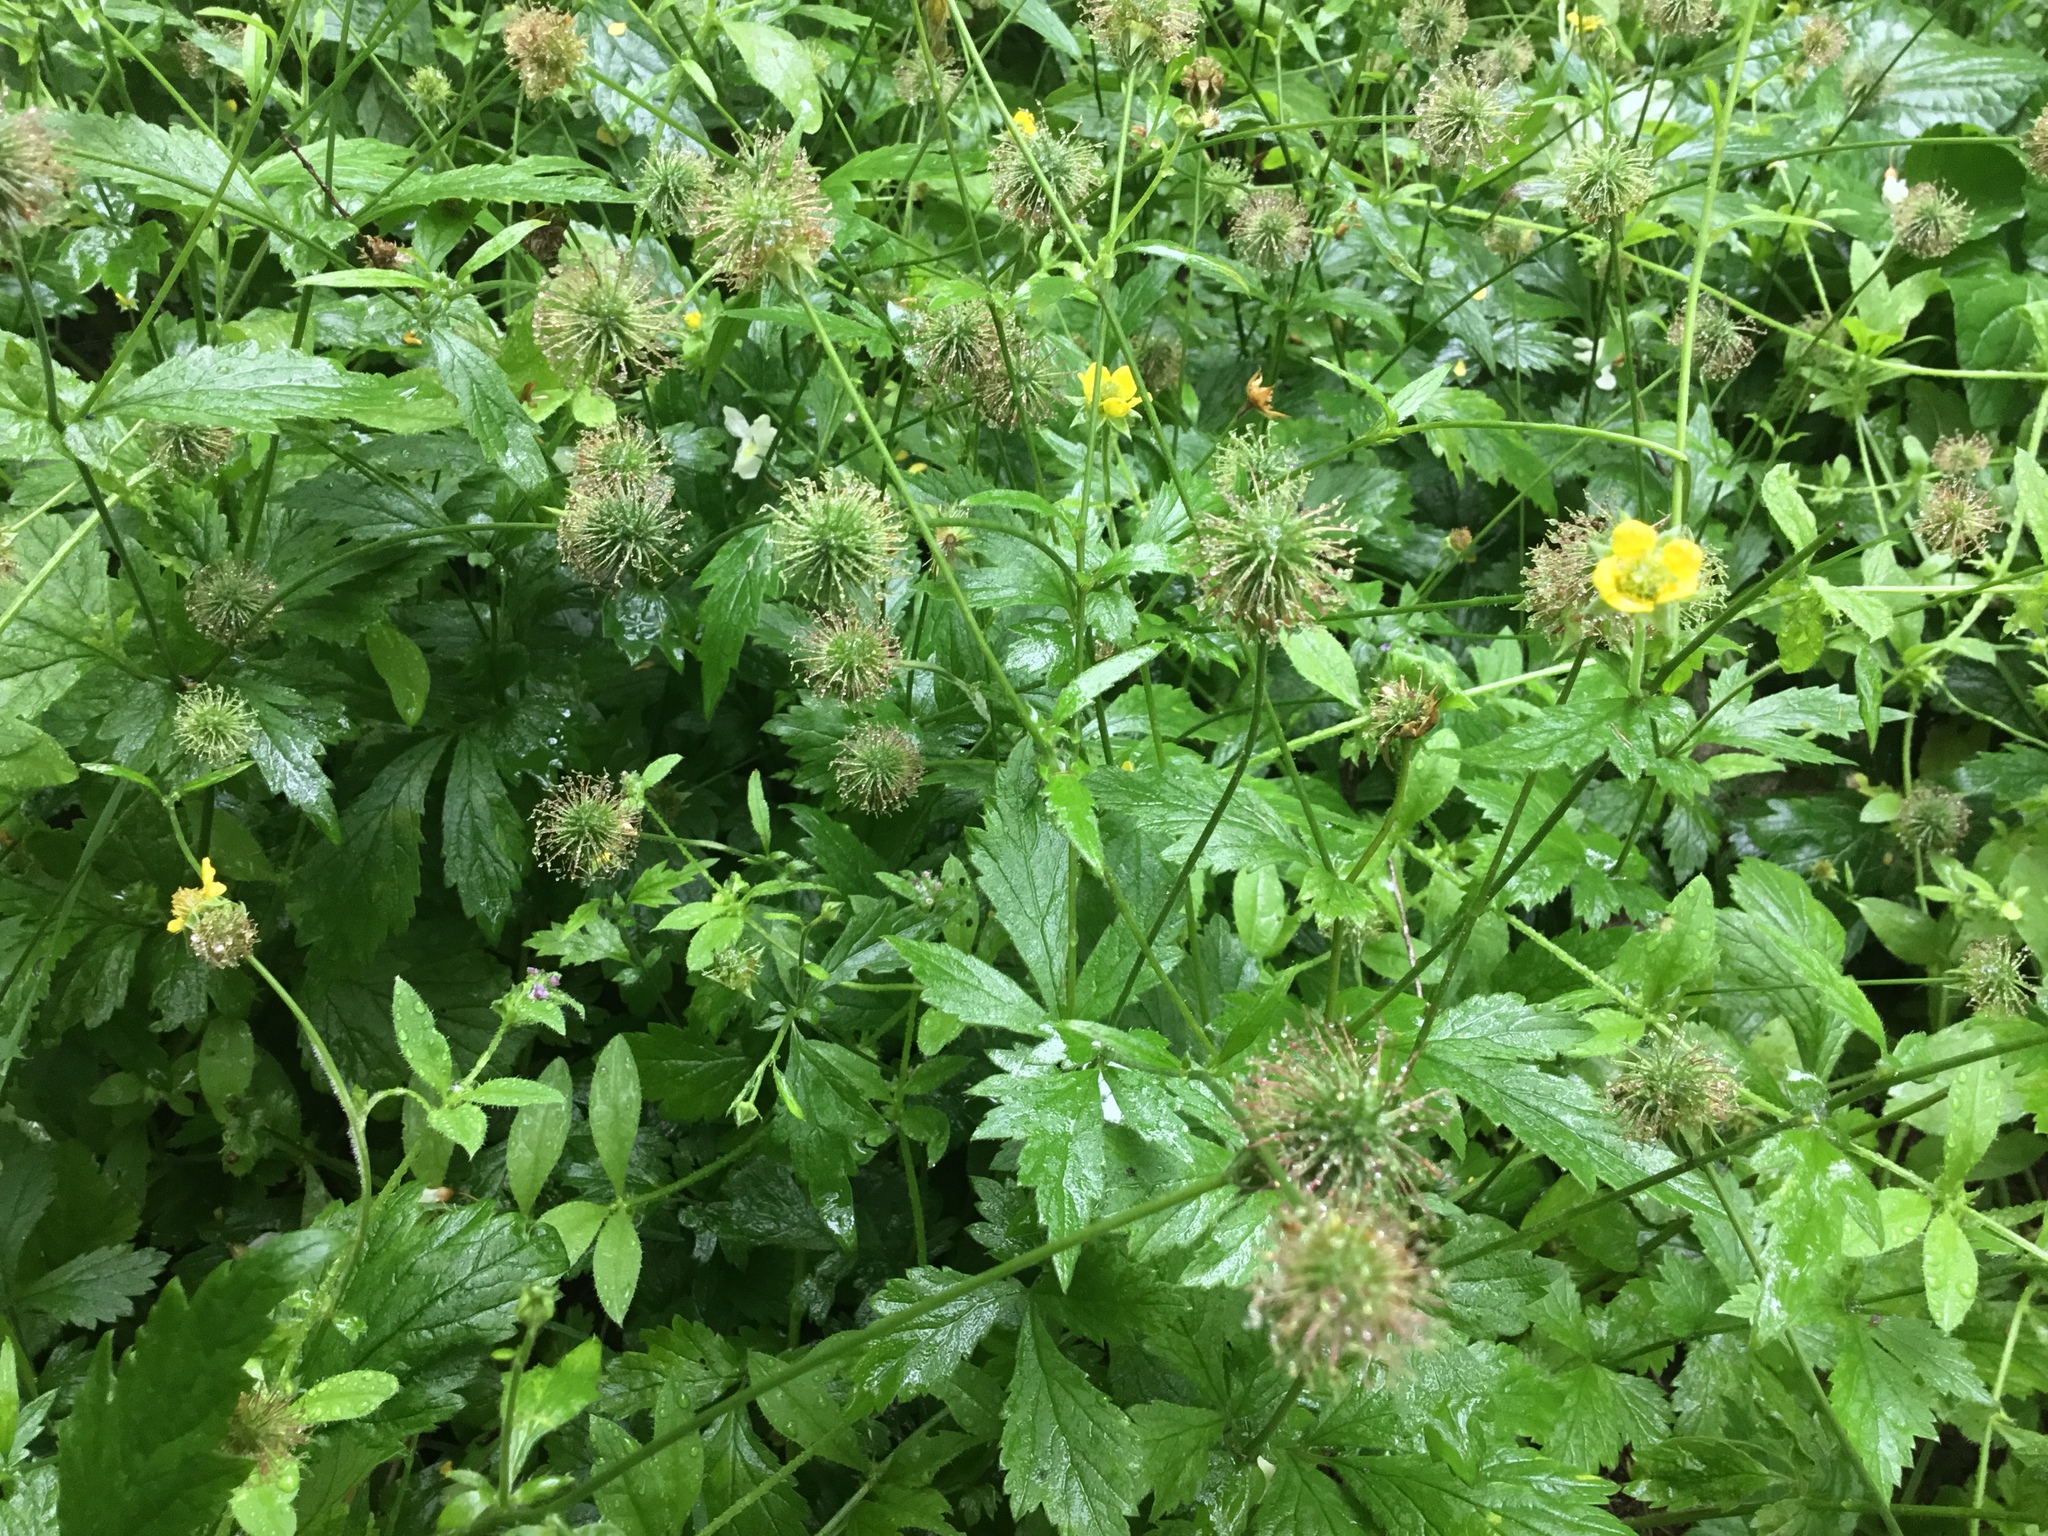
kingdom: Plantae
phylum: Tracheophyta
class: Magnoliopsida
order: Rosales
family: Rosaceae
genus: Geum
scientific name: Geum urbanum
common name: Wood avens
